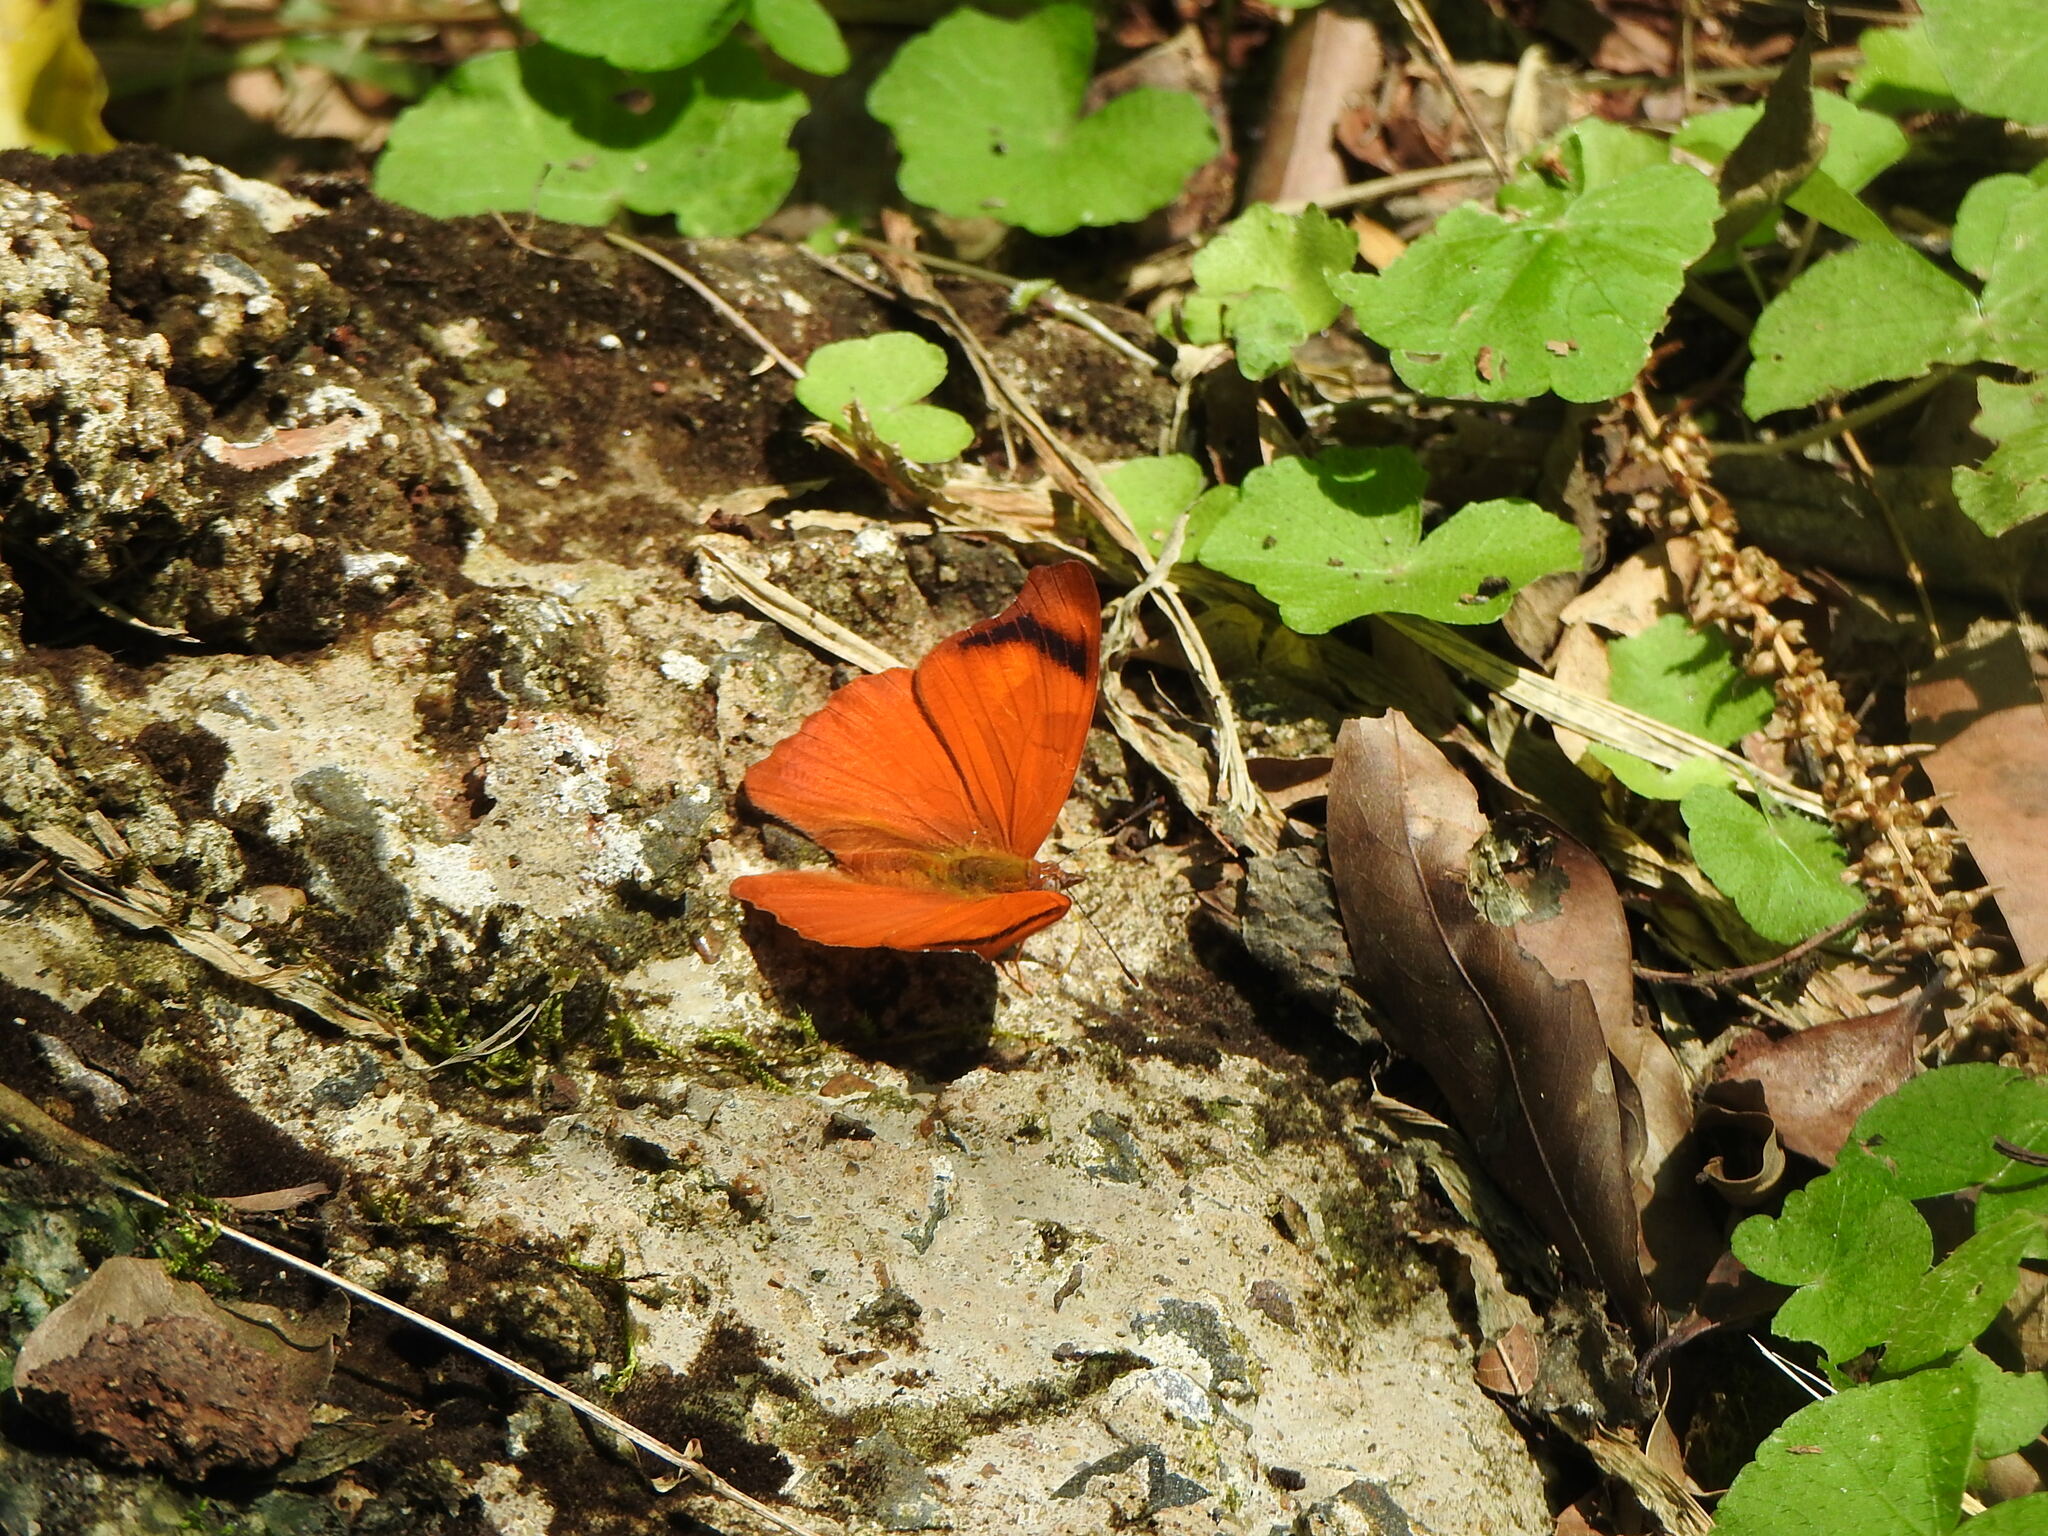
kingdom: Animalia
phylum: Arthropoda
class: Insecta
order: Lepidoptera
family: Nymphalidae
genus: Temenis
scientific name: Temenis laothoe
